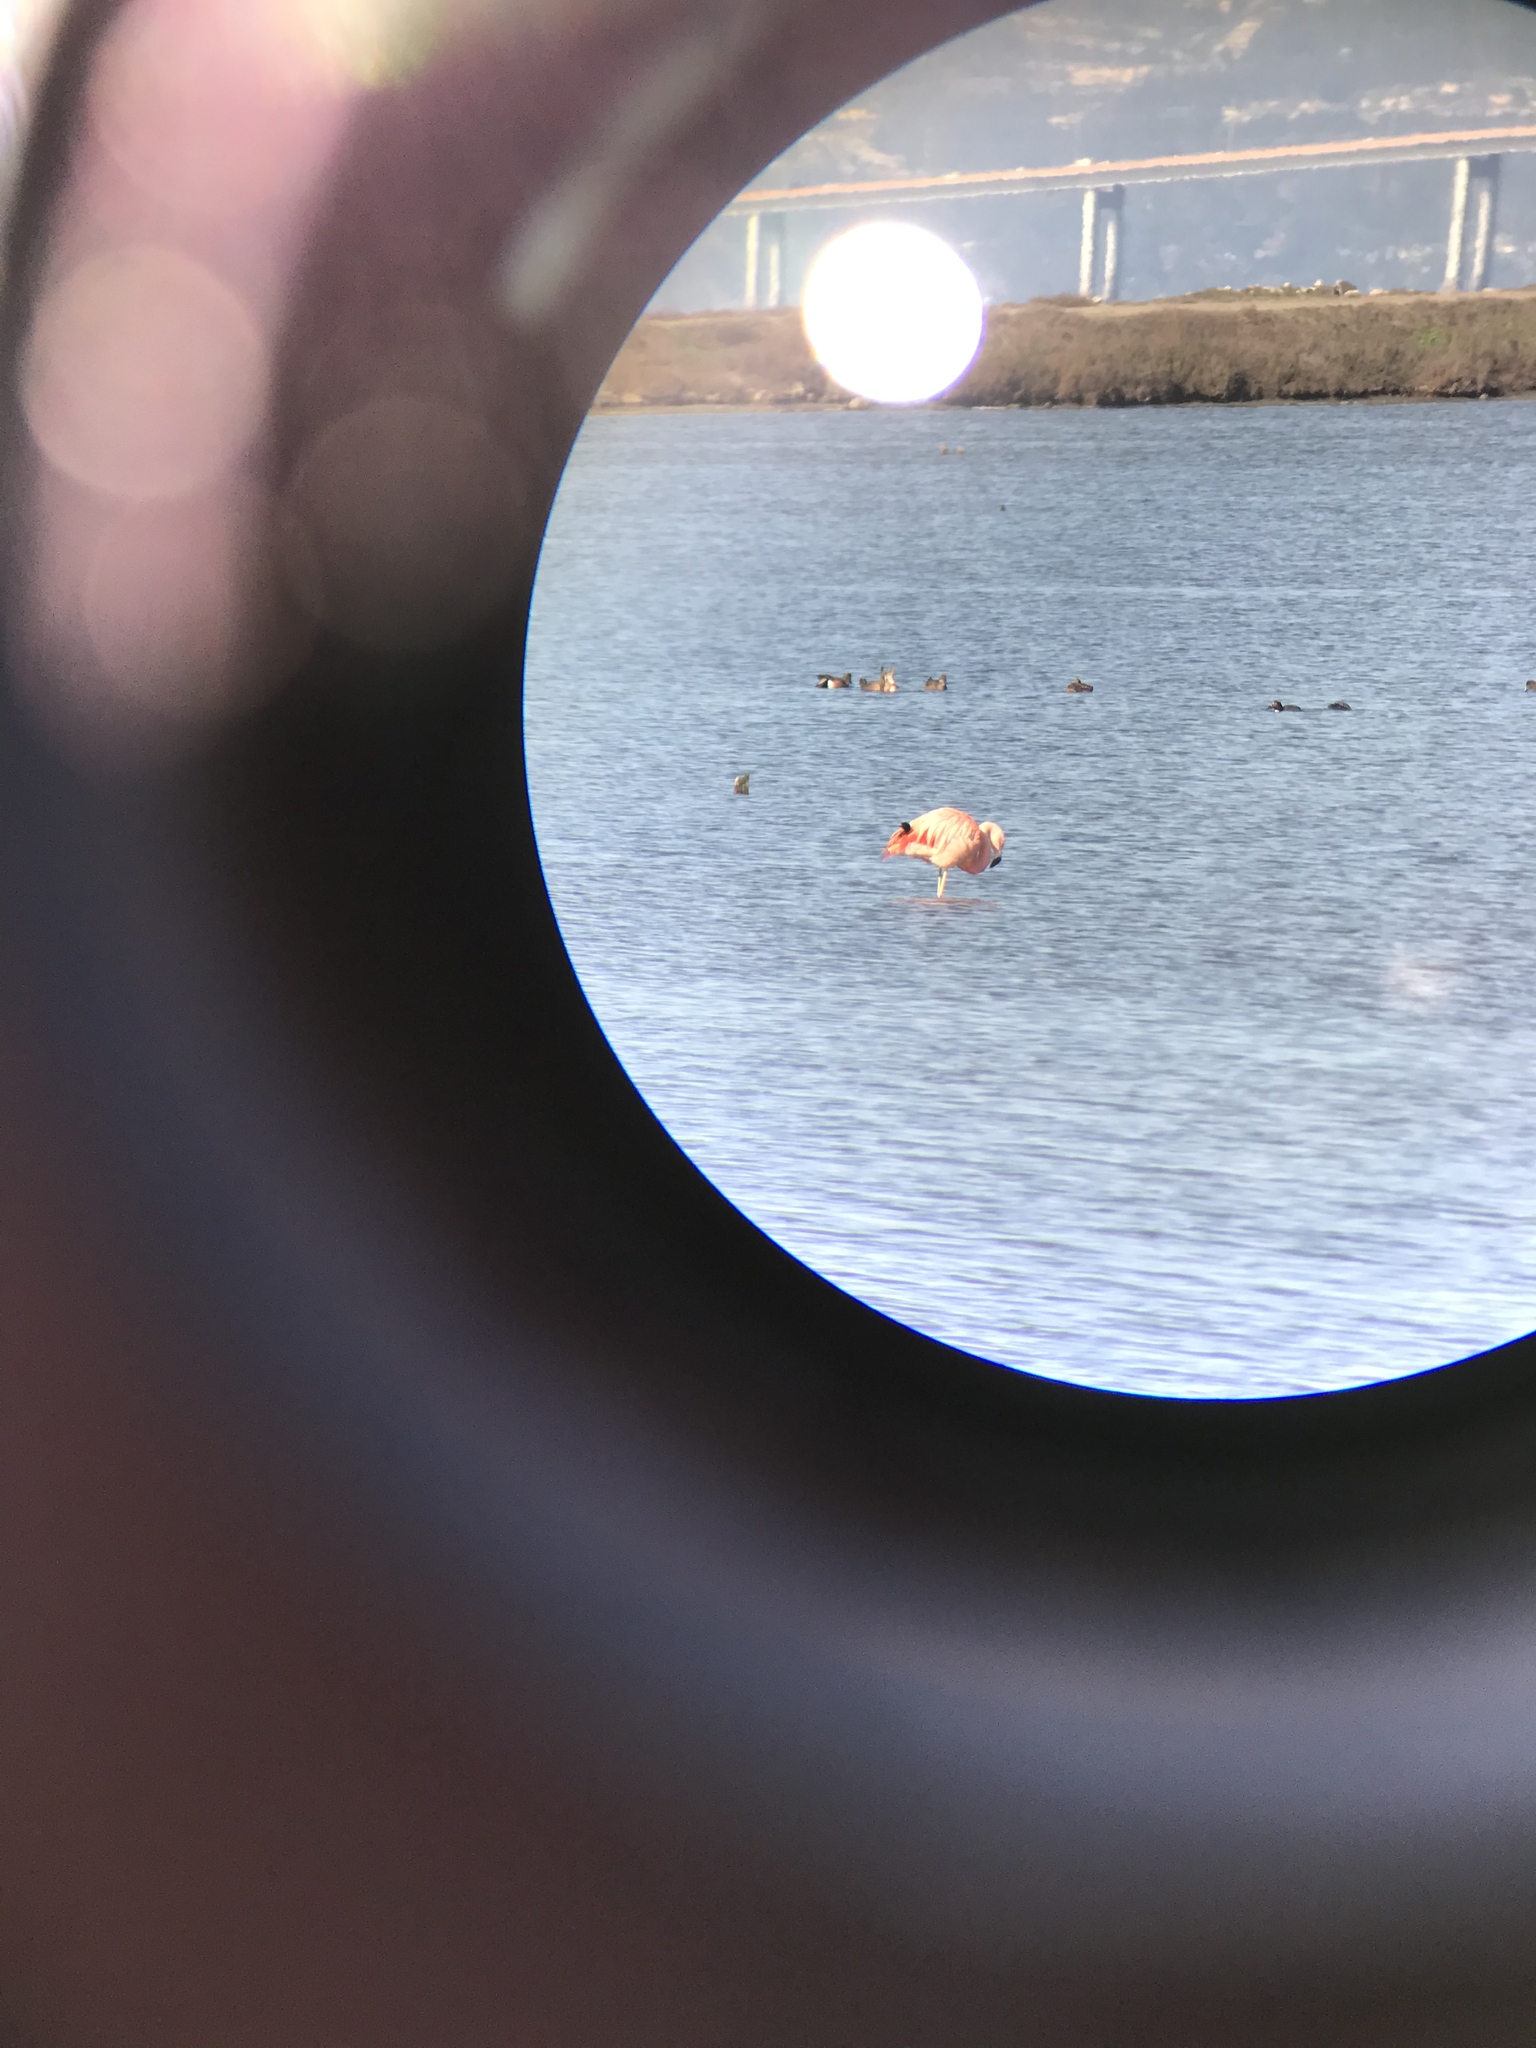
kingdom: Animalia
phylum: Chordata
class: Aves
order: Phoenicopteriformes
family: Phoenicopteridae
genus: Phoenicopterus
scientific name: Phoenicopterus chilensis
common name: Chilean flamingo
